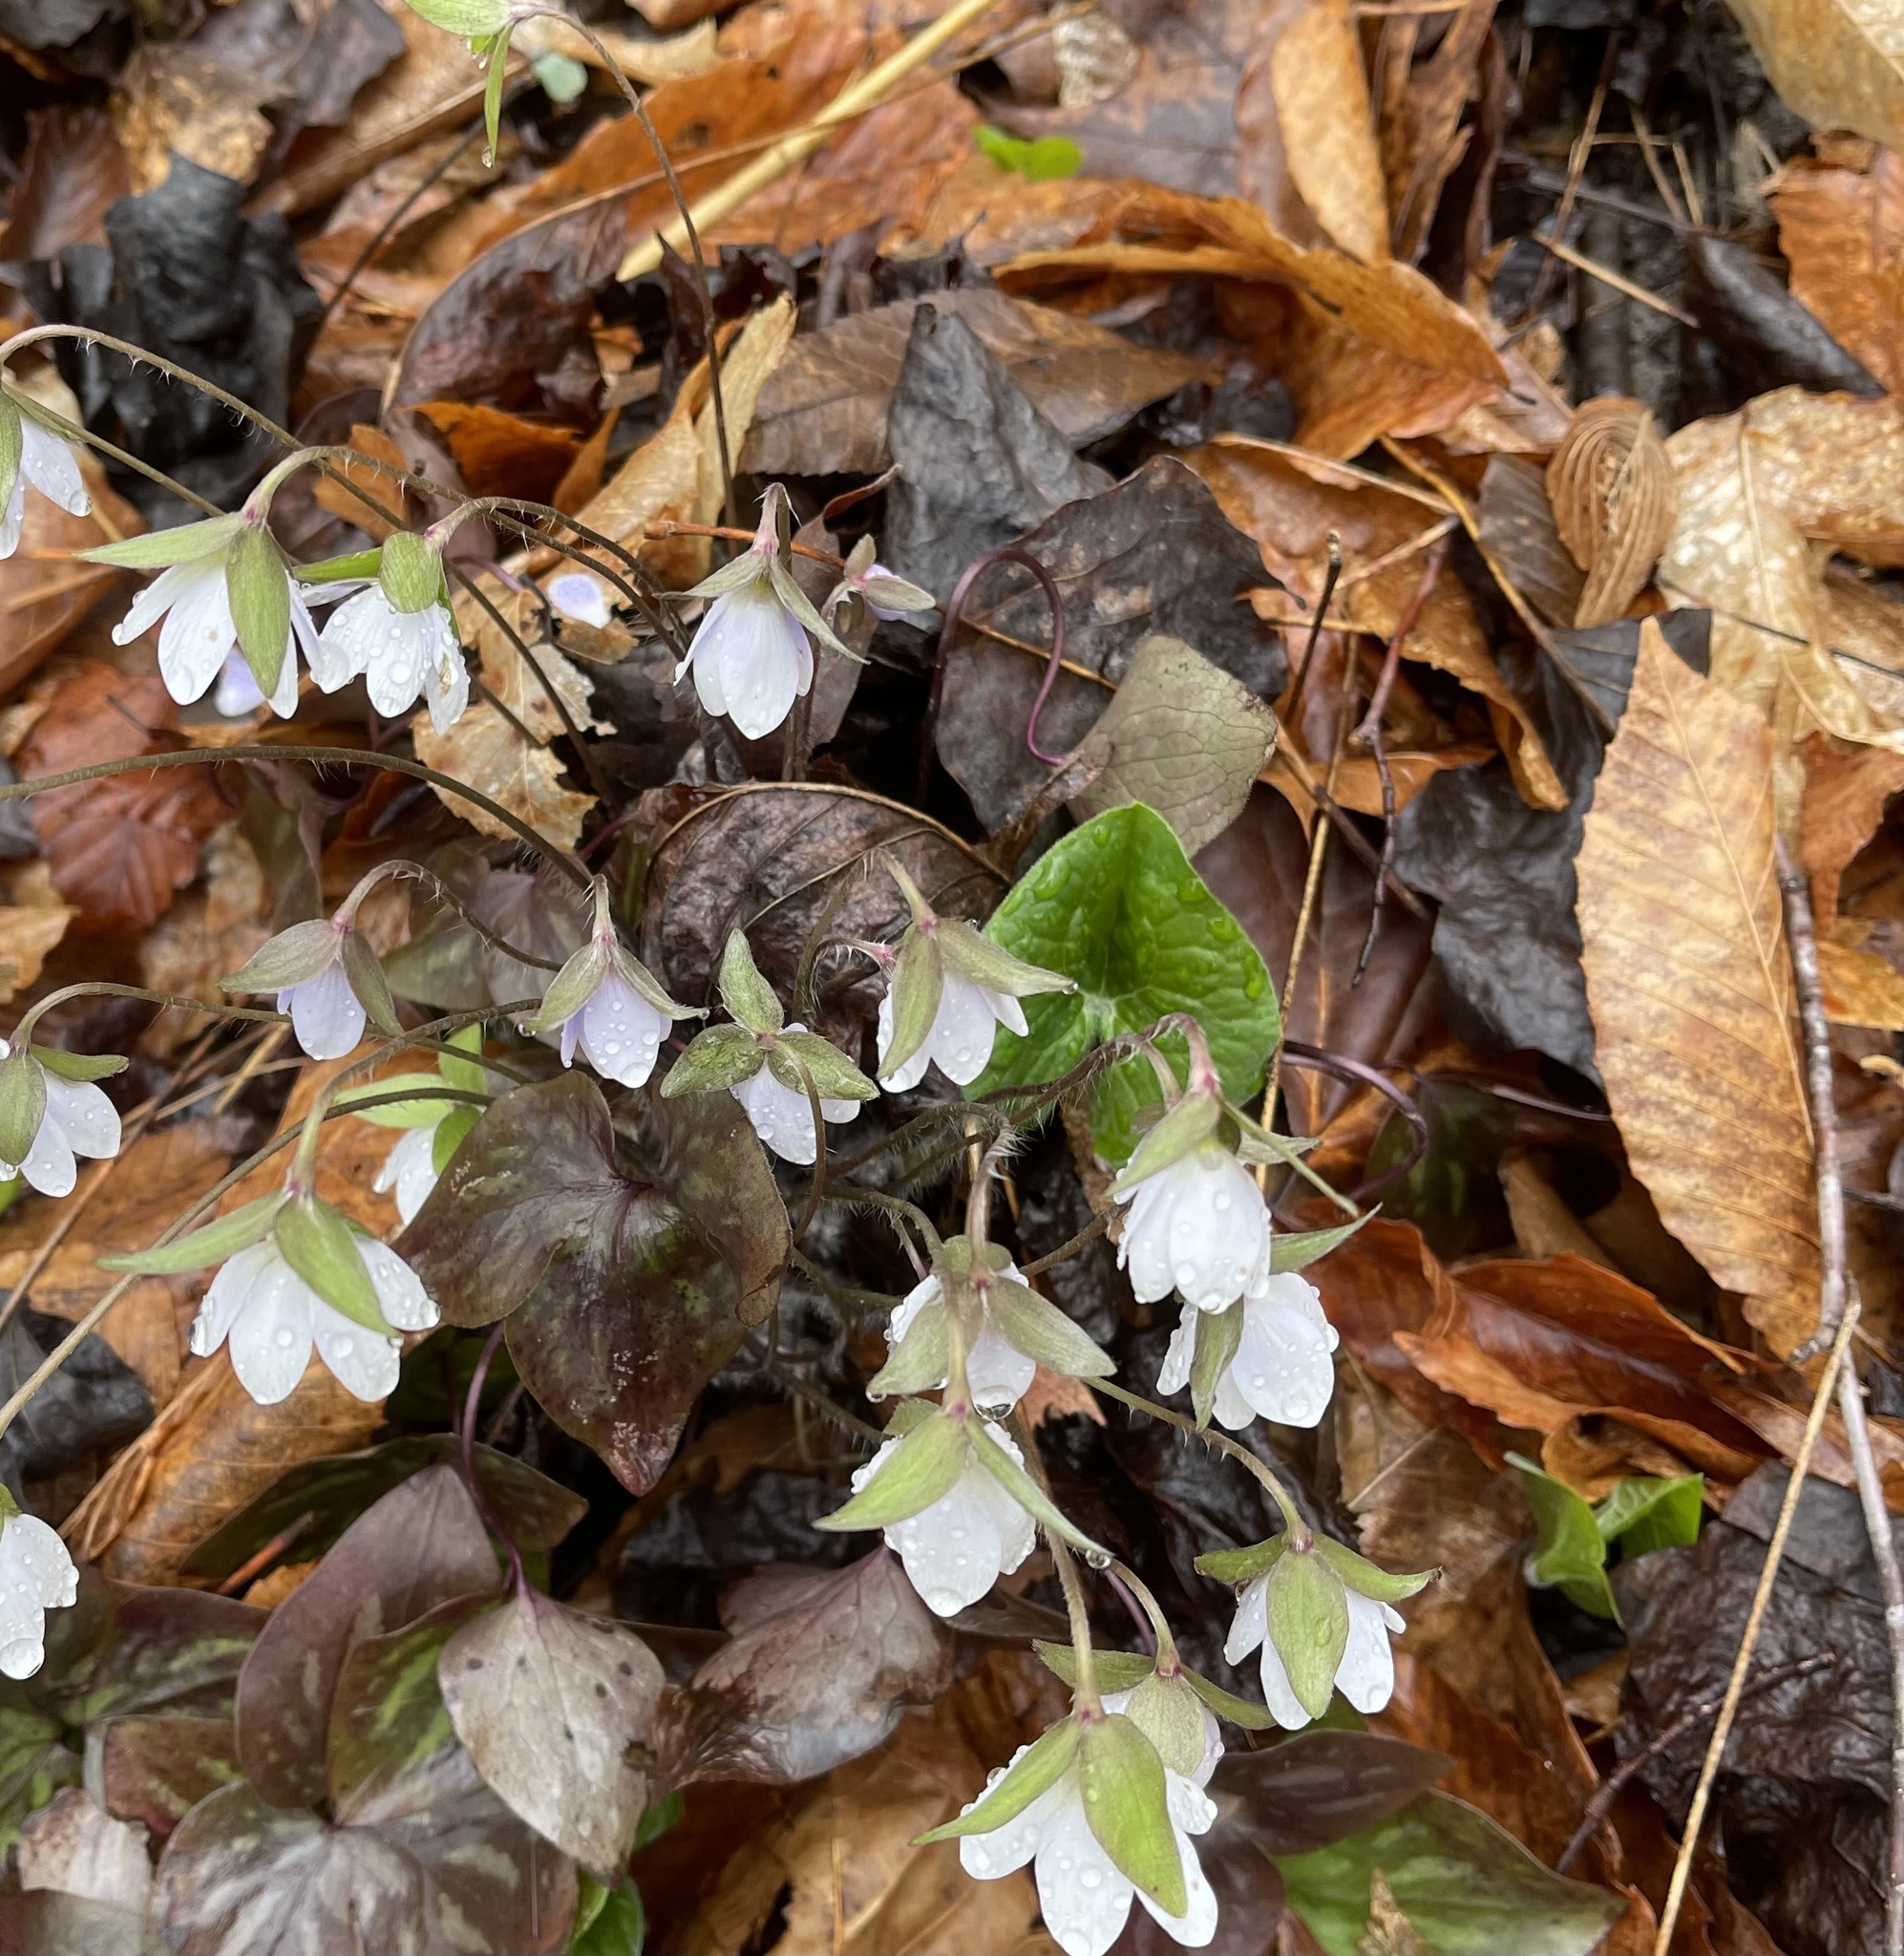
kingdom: Plantae
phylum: Tracheophyta
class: Magnoliopsida
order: Ranunculales
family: Ranunculaceae
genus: Hepatica
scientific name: Hepatica acutiloba
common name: Sharp-lobed hepatica
